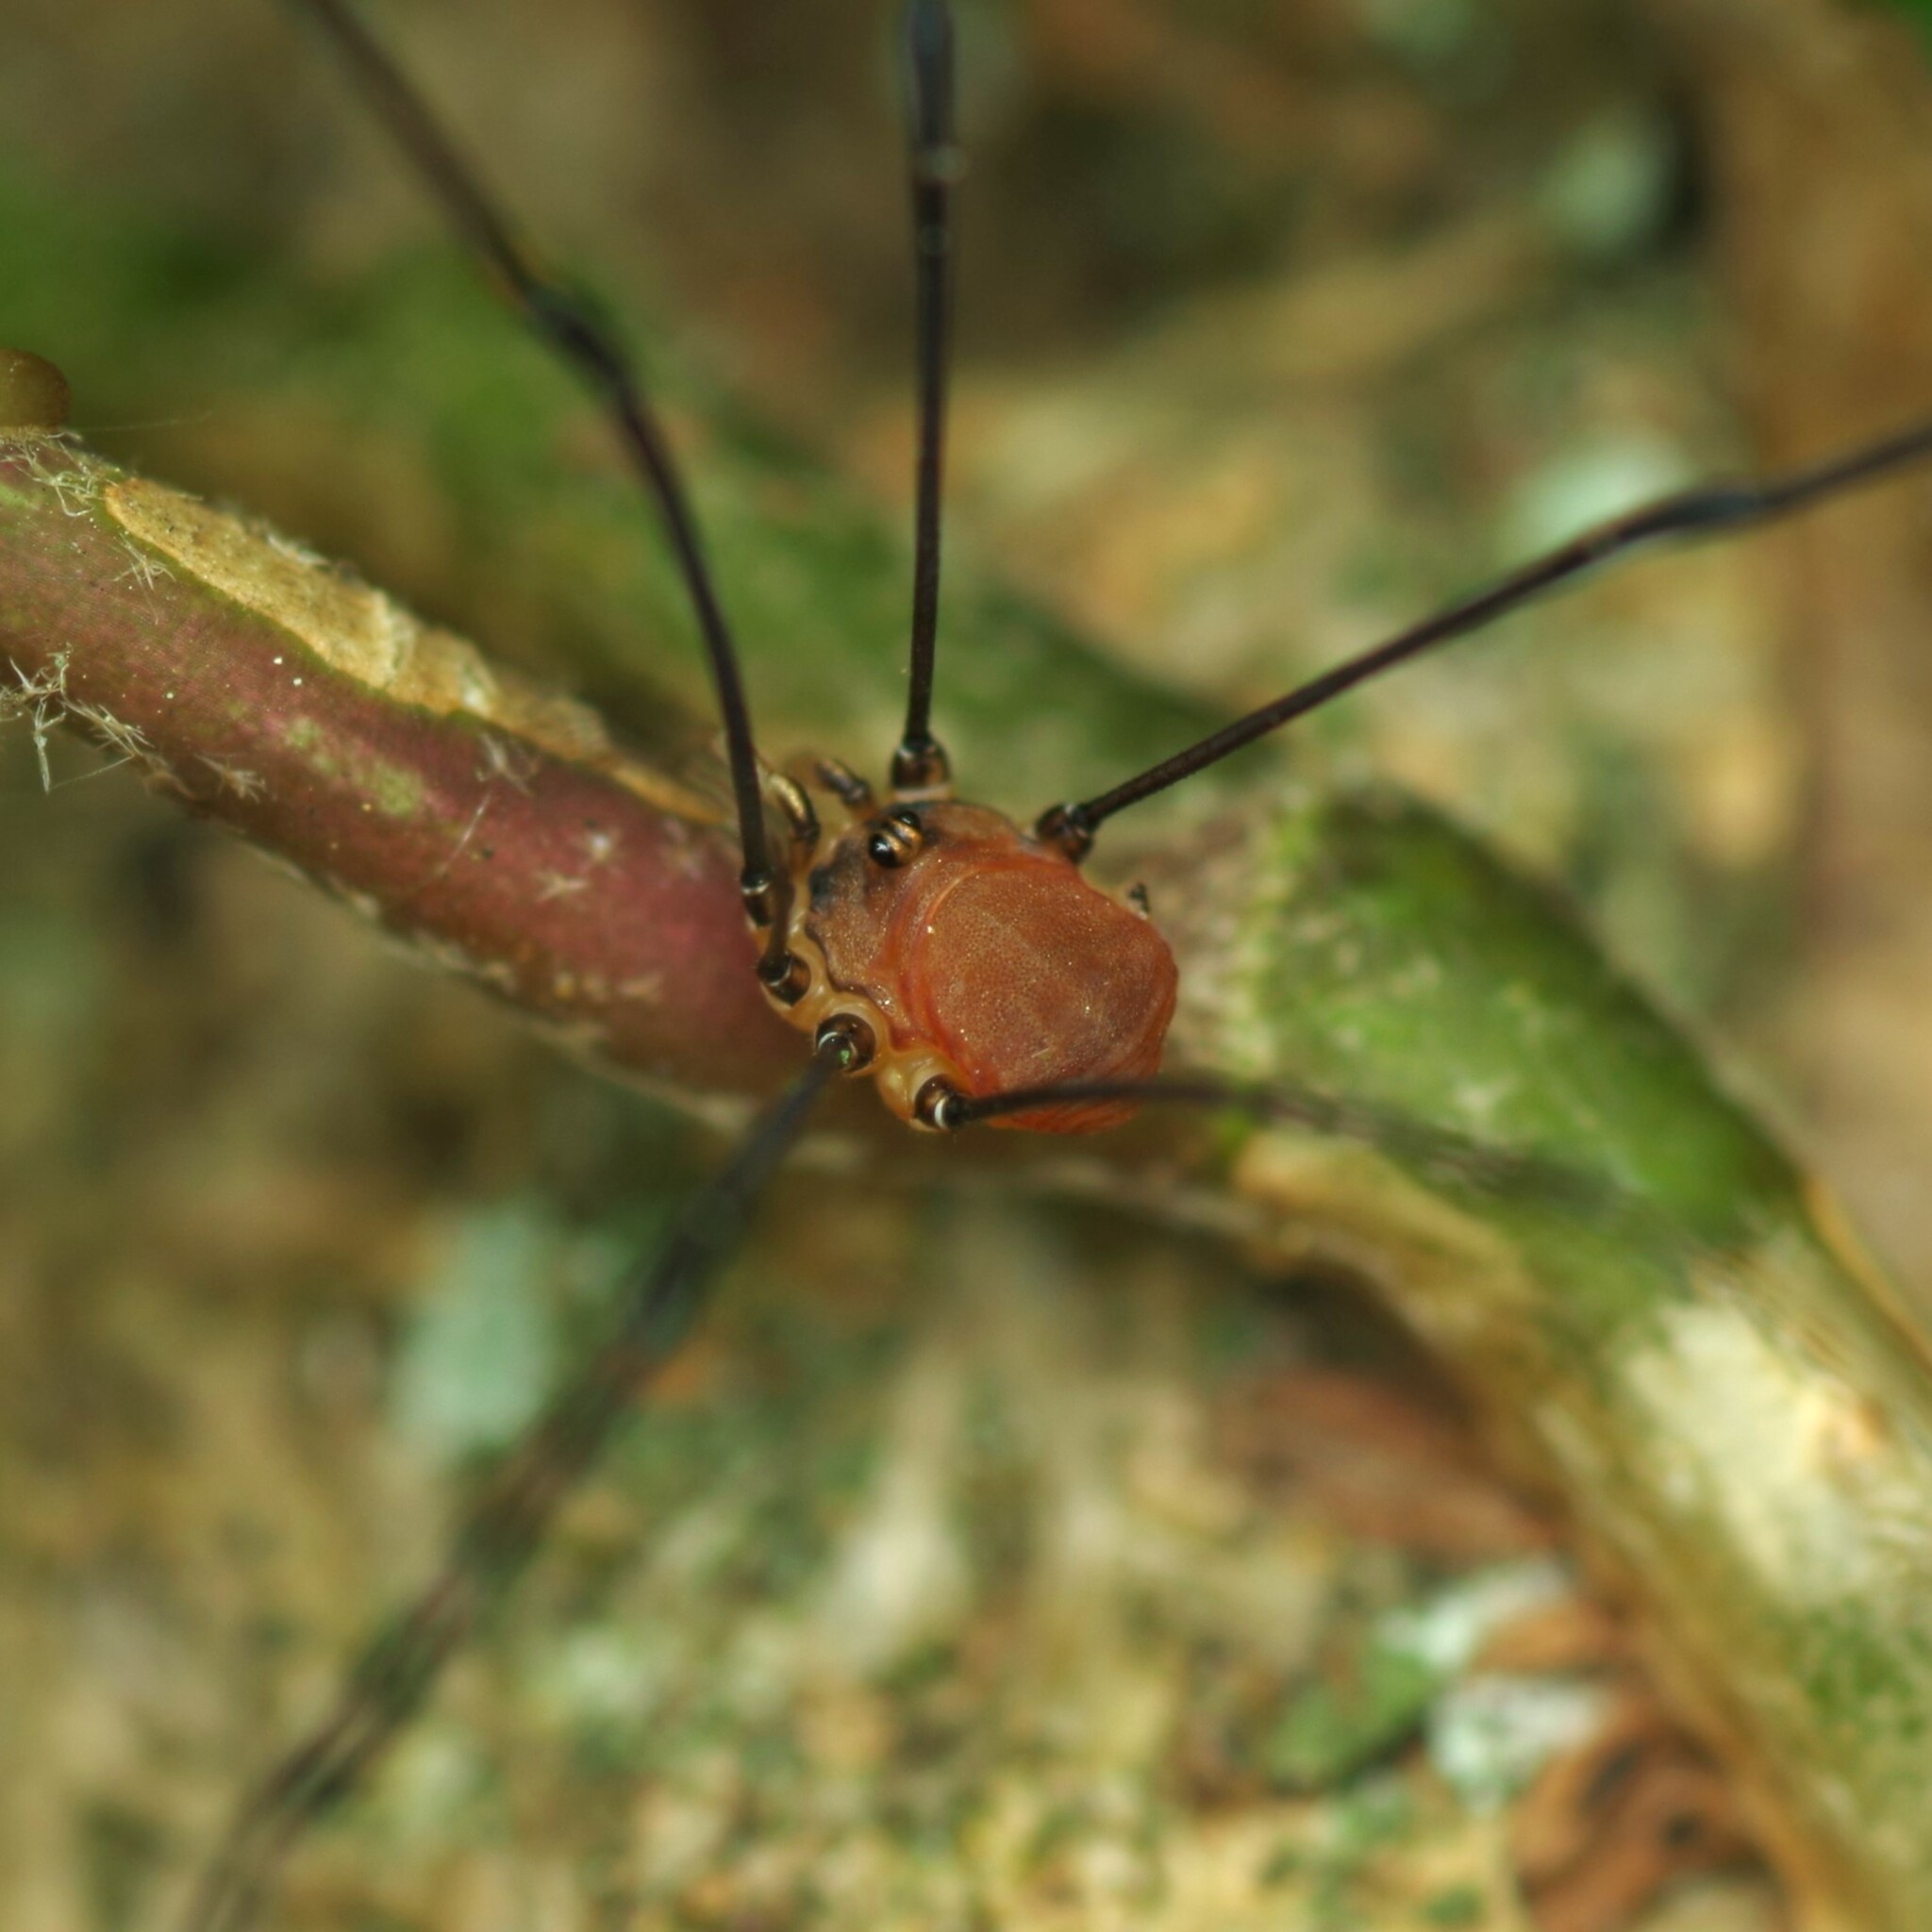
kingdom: Animalia
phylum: Arthropoda
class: Arachnida
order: Opiliones
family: Sclerosomatidae
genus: Leiobunum
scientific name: Leiobunum blackwalli
